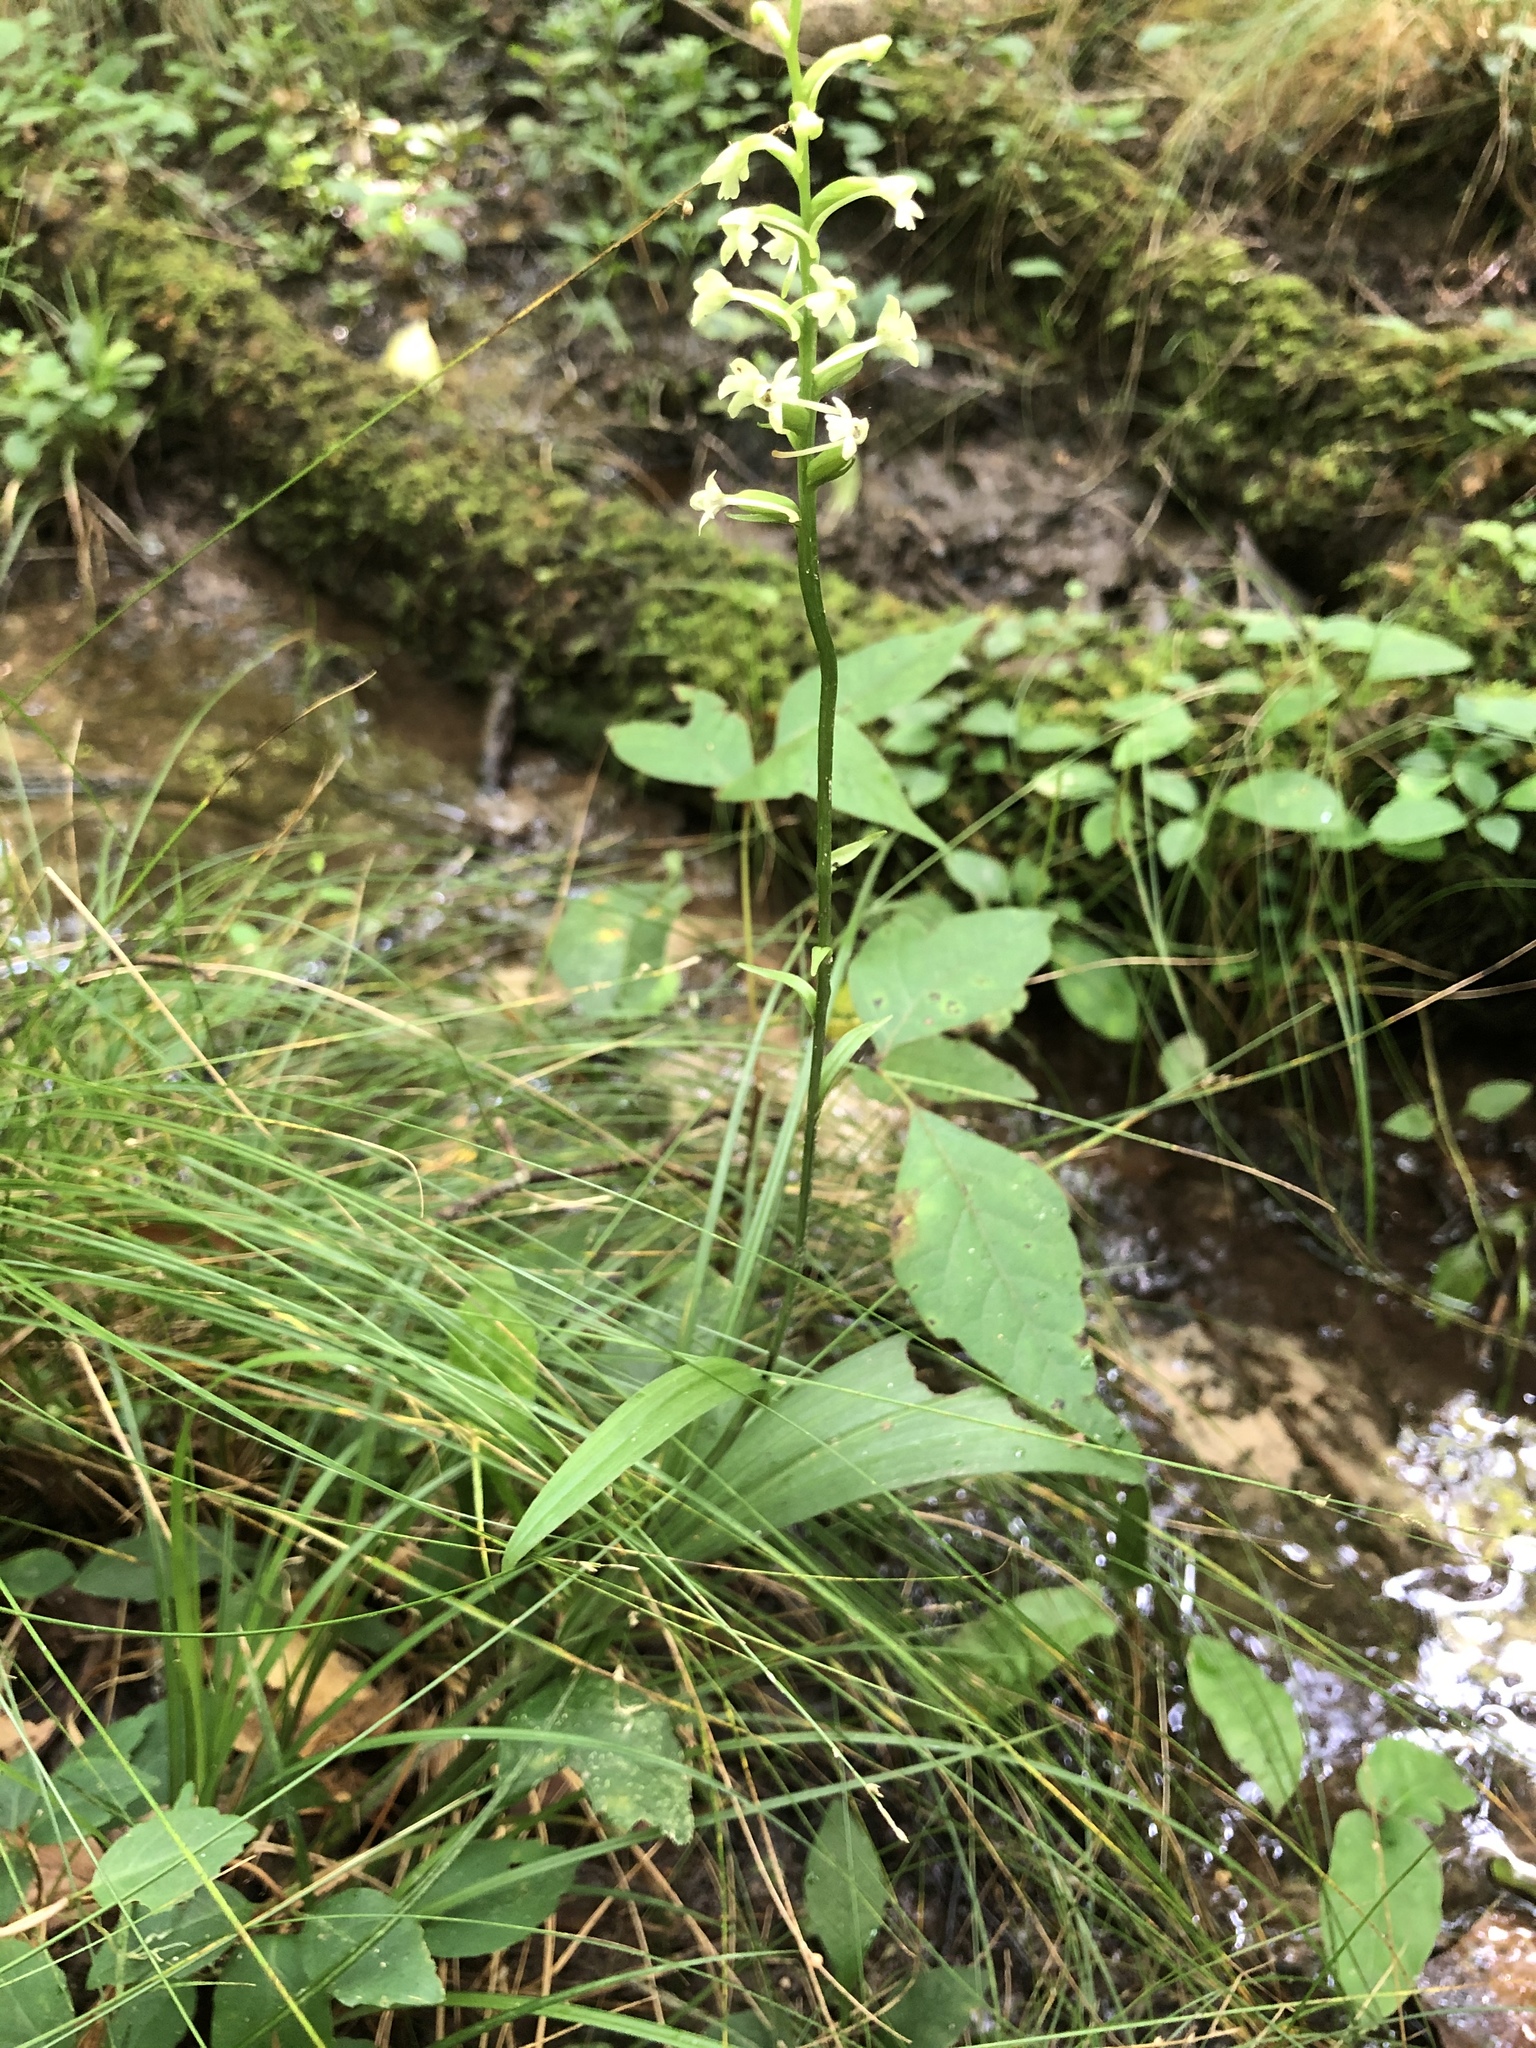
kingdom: Plantae
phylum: Tracheophyta
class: Liliopsida
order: Asparagales
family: Orchidaceae
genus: Platanthera
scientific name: Platanthera clavellata
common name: Club-spur orchid
